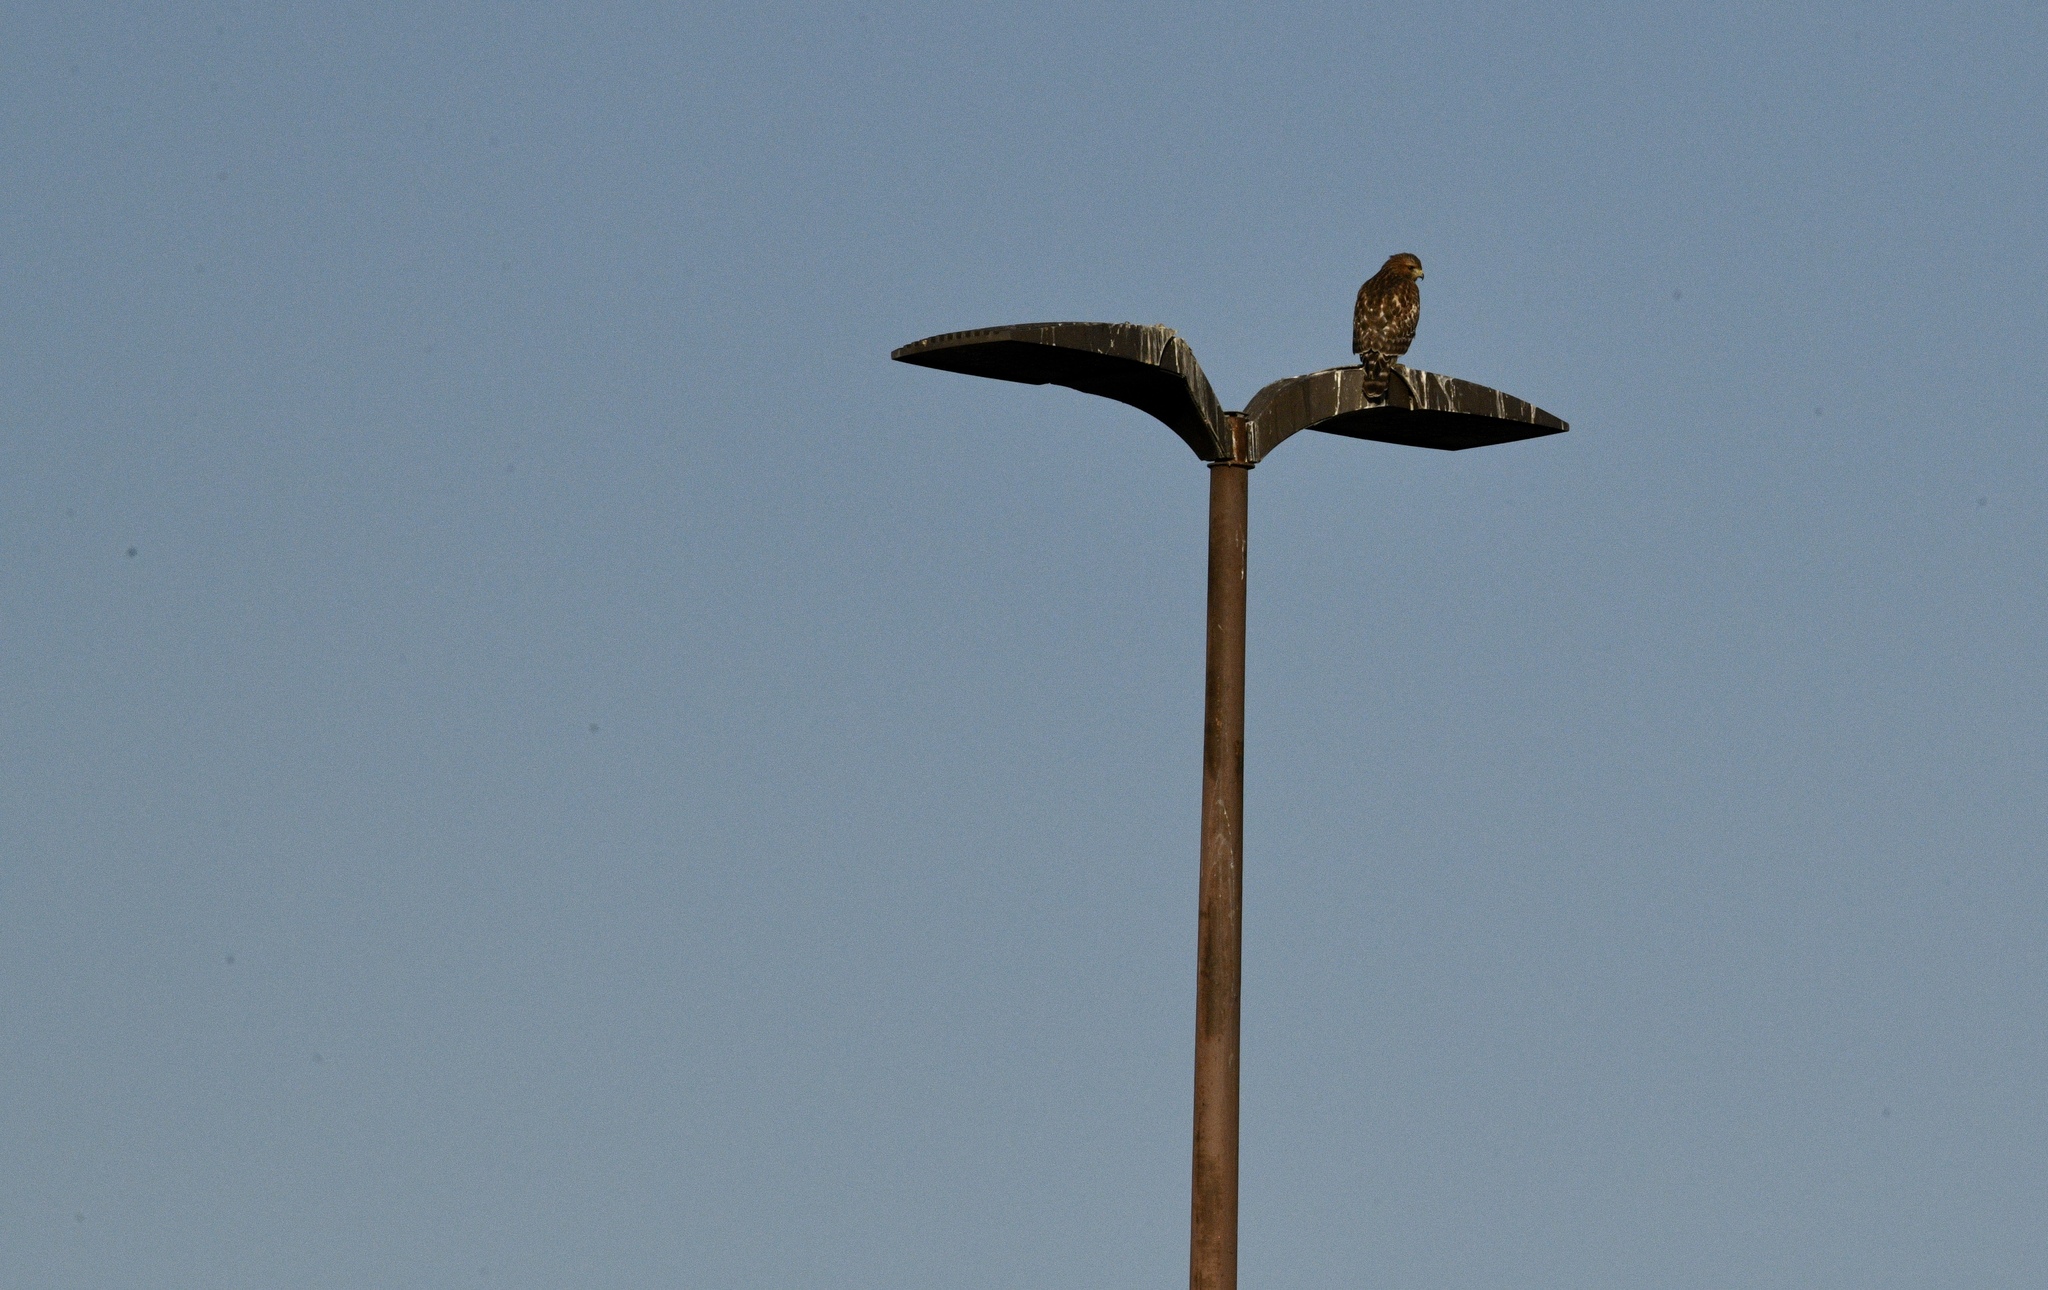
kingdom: Animalia
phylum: Chordata
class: Aves
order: Accipitriformes
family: Accipitridae
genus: Buteo
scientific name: Buteo lineatus
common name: Red-shouldered hawk
